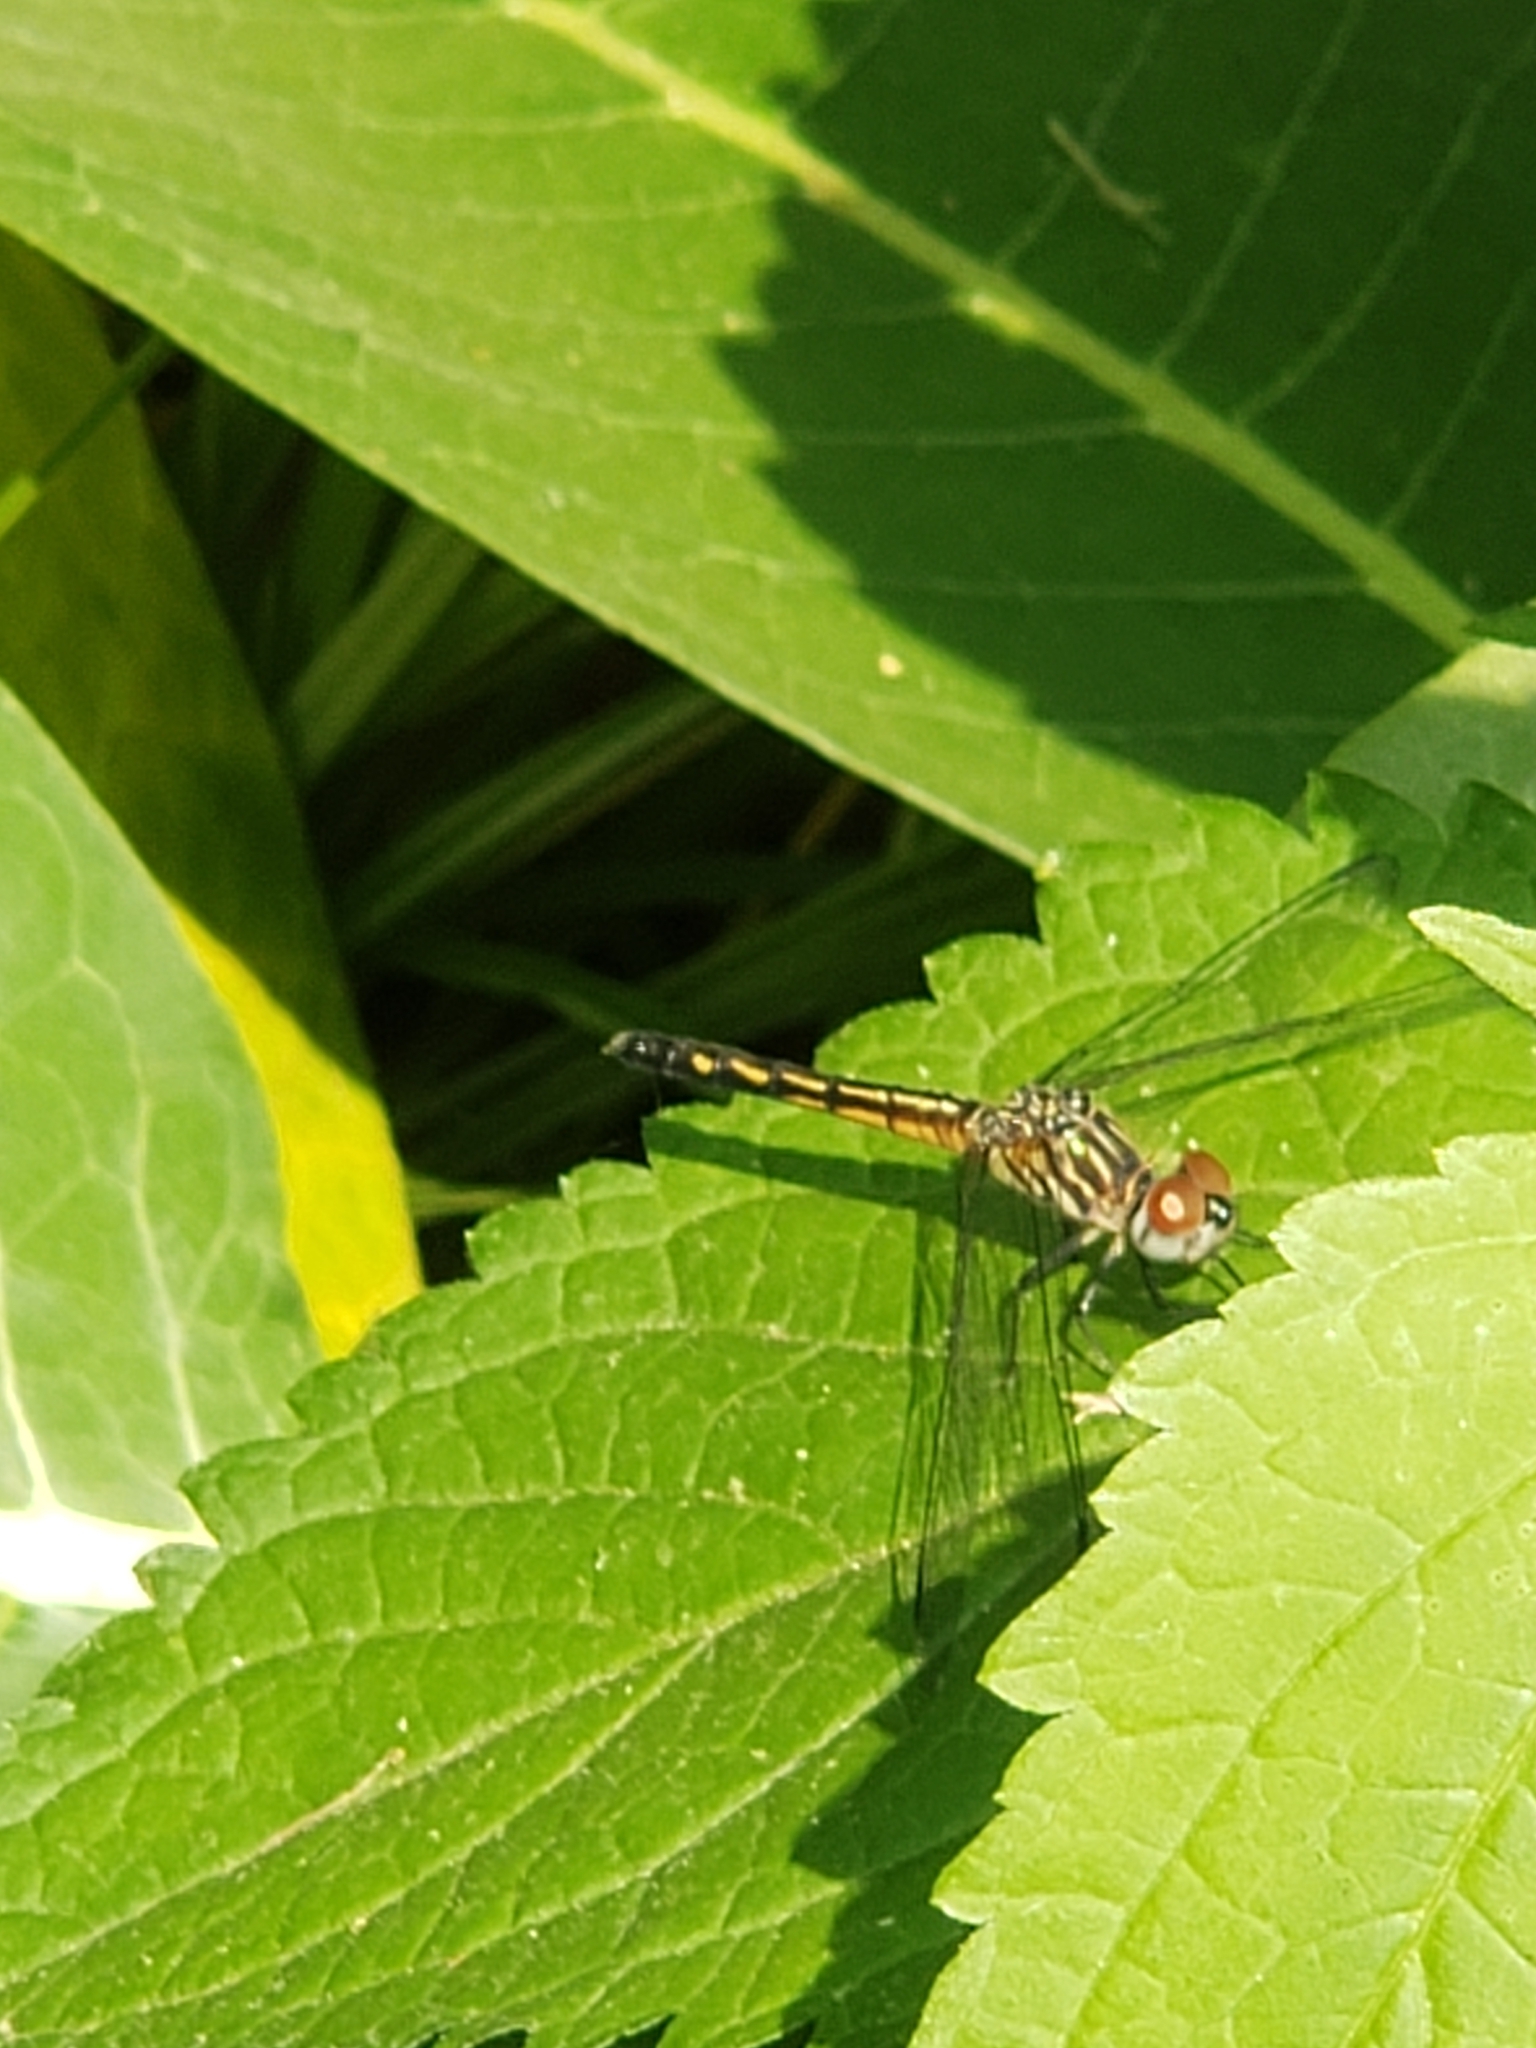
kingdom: Animalia
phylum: Arthropoda
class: Insecta
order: Odonata
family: Libellulidae
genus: Pachydiplax
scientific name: Pachydiplax longipennis
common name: Blue dasher
